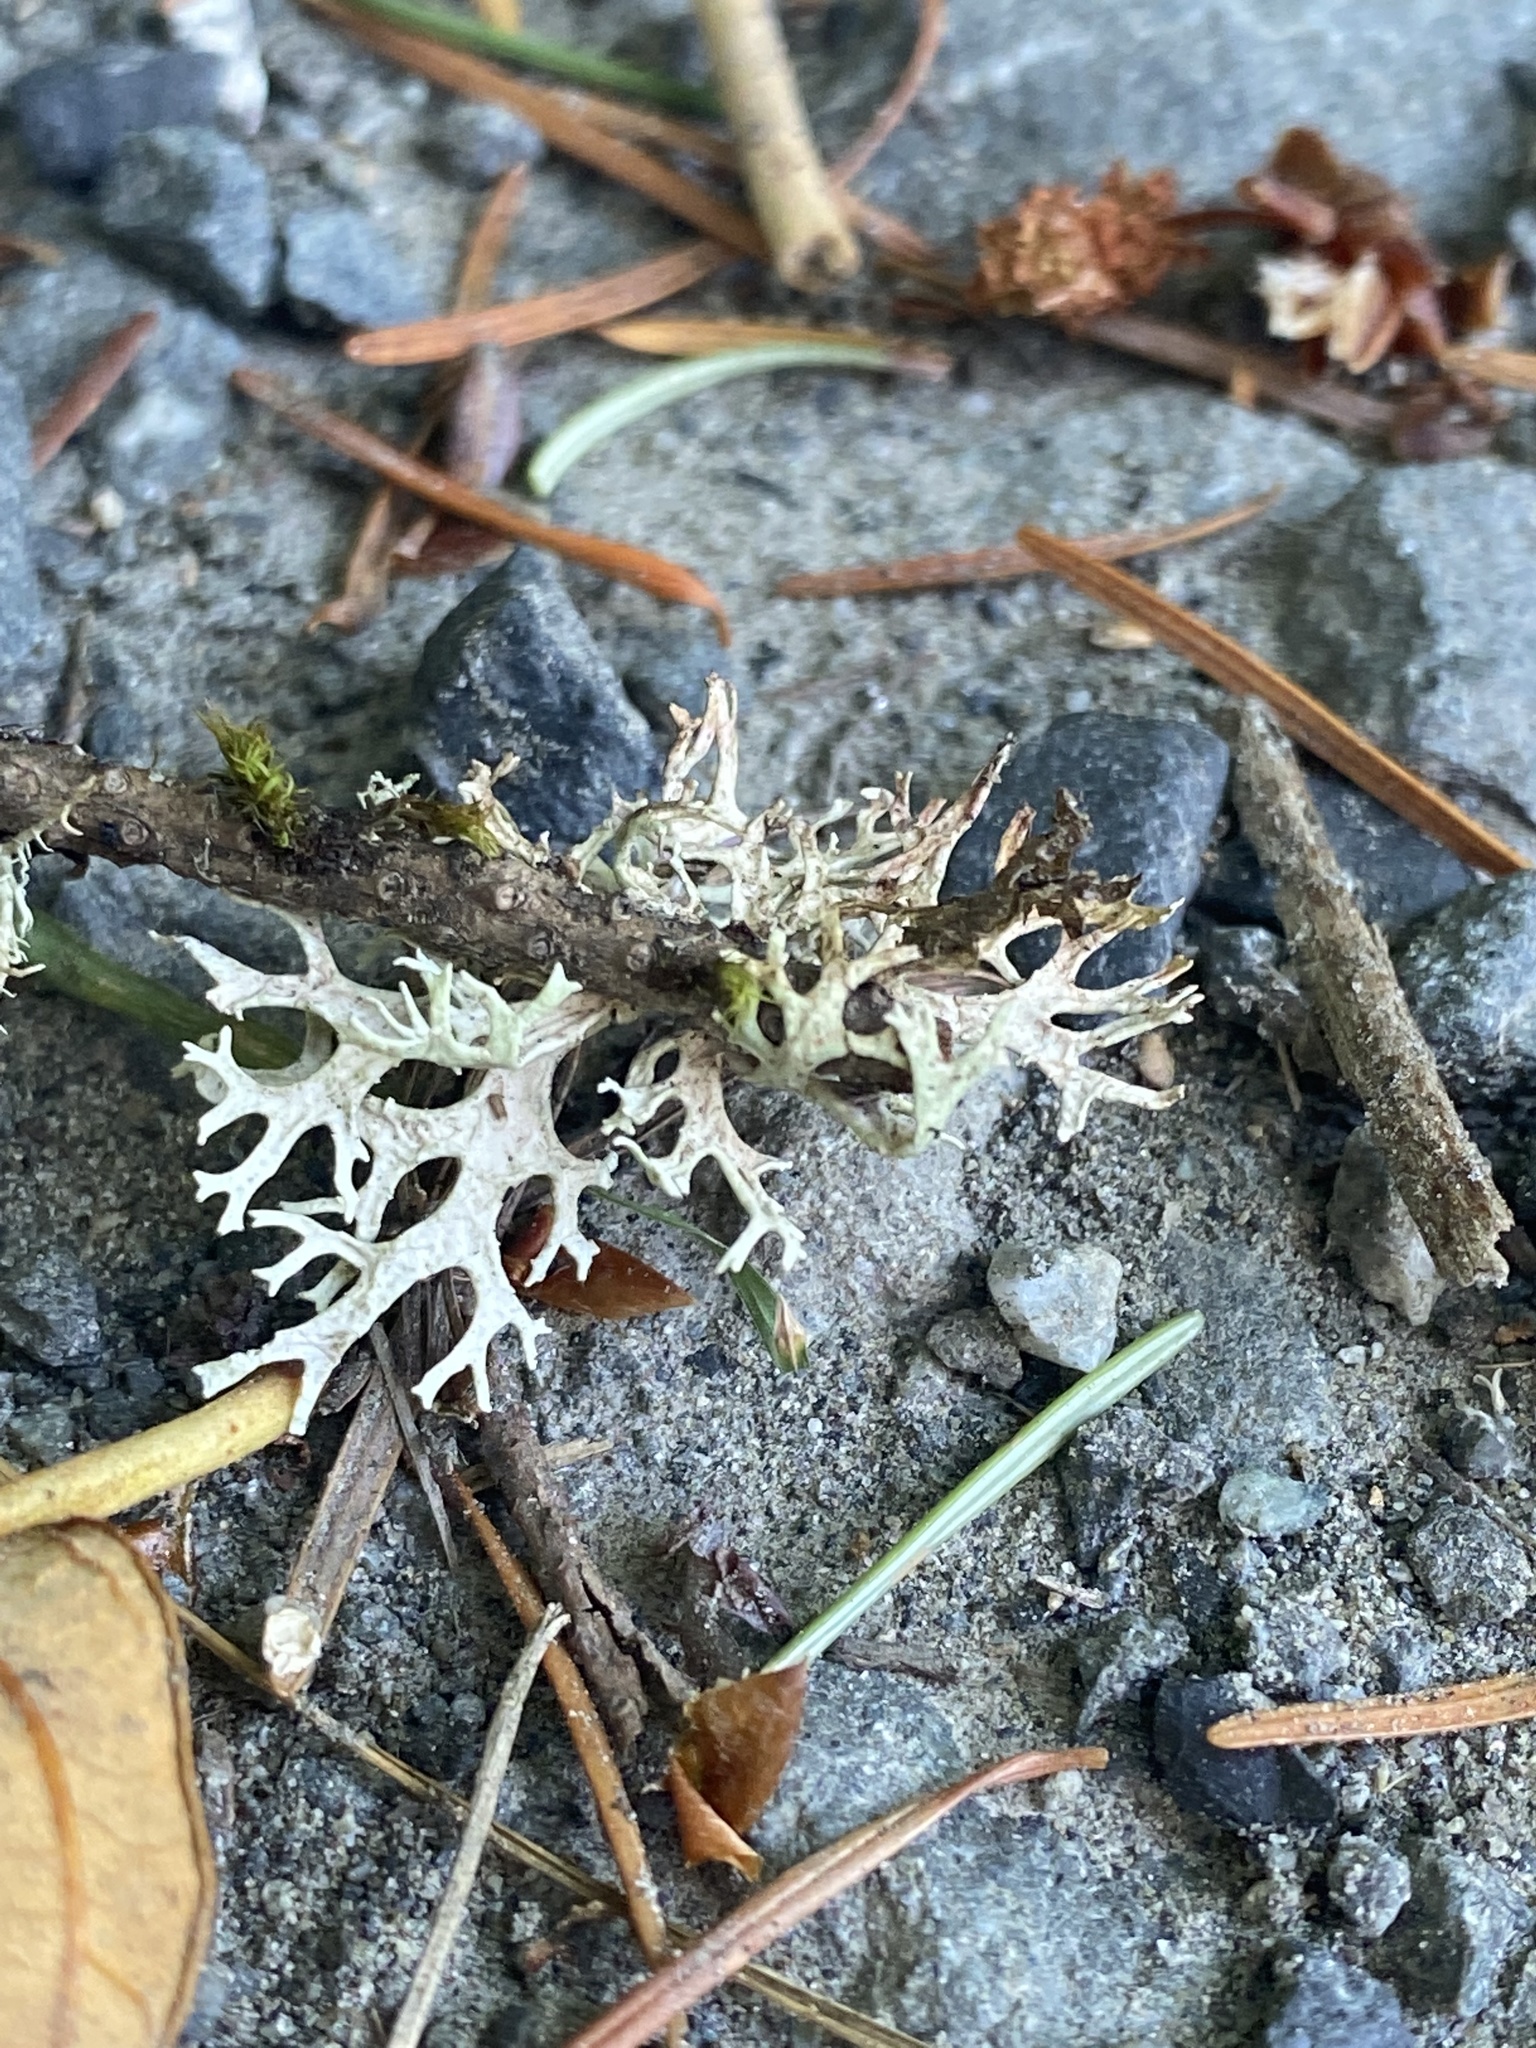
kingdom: Fungi
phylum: Ascomycota
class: Lecanoromycetes
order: Lecanorales
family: Parmeliaceae
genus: Evernia
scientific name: Evernia prunastri
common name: Oak moss
